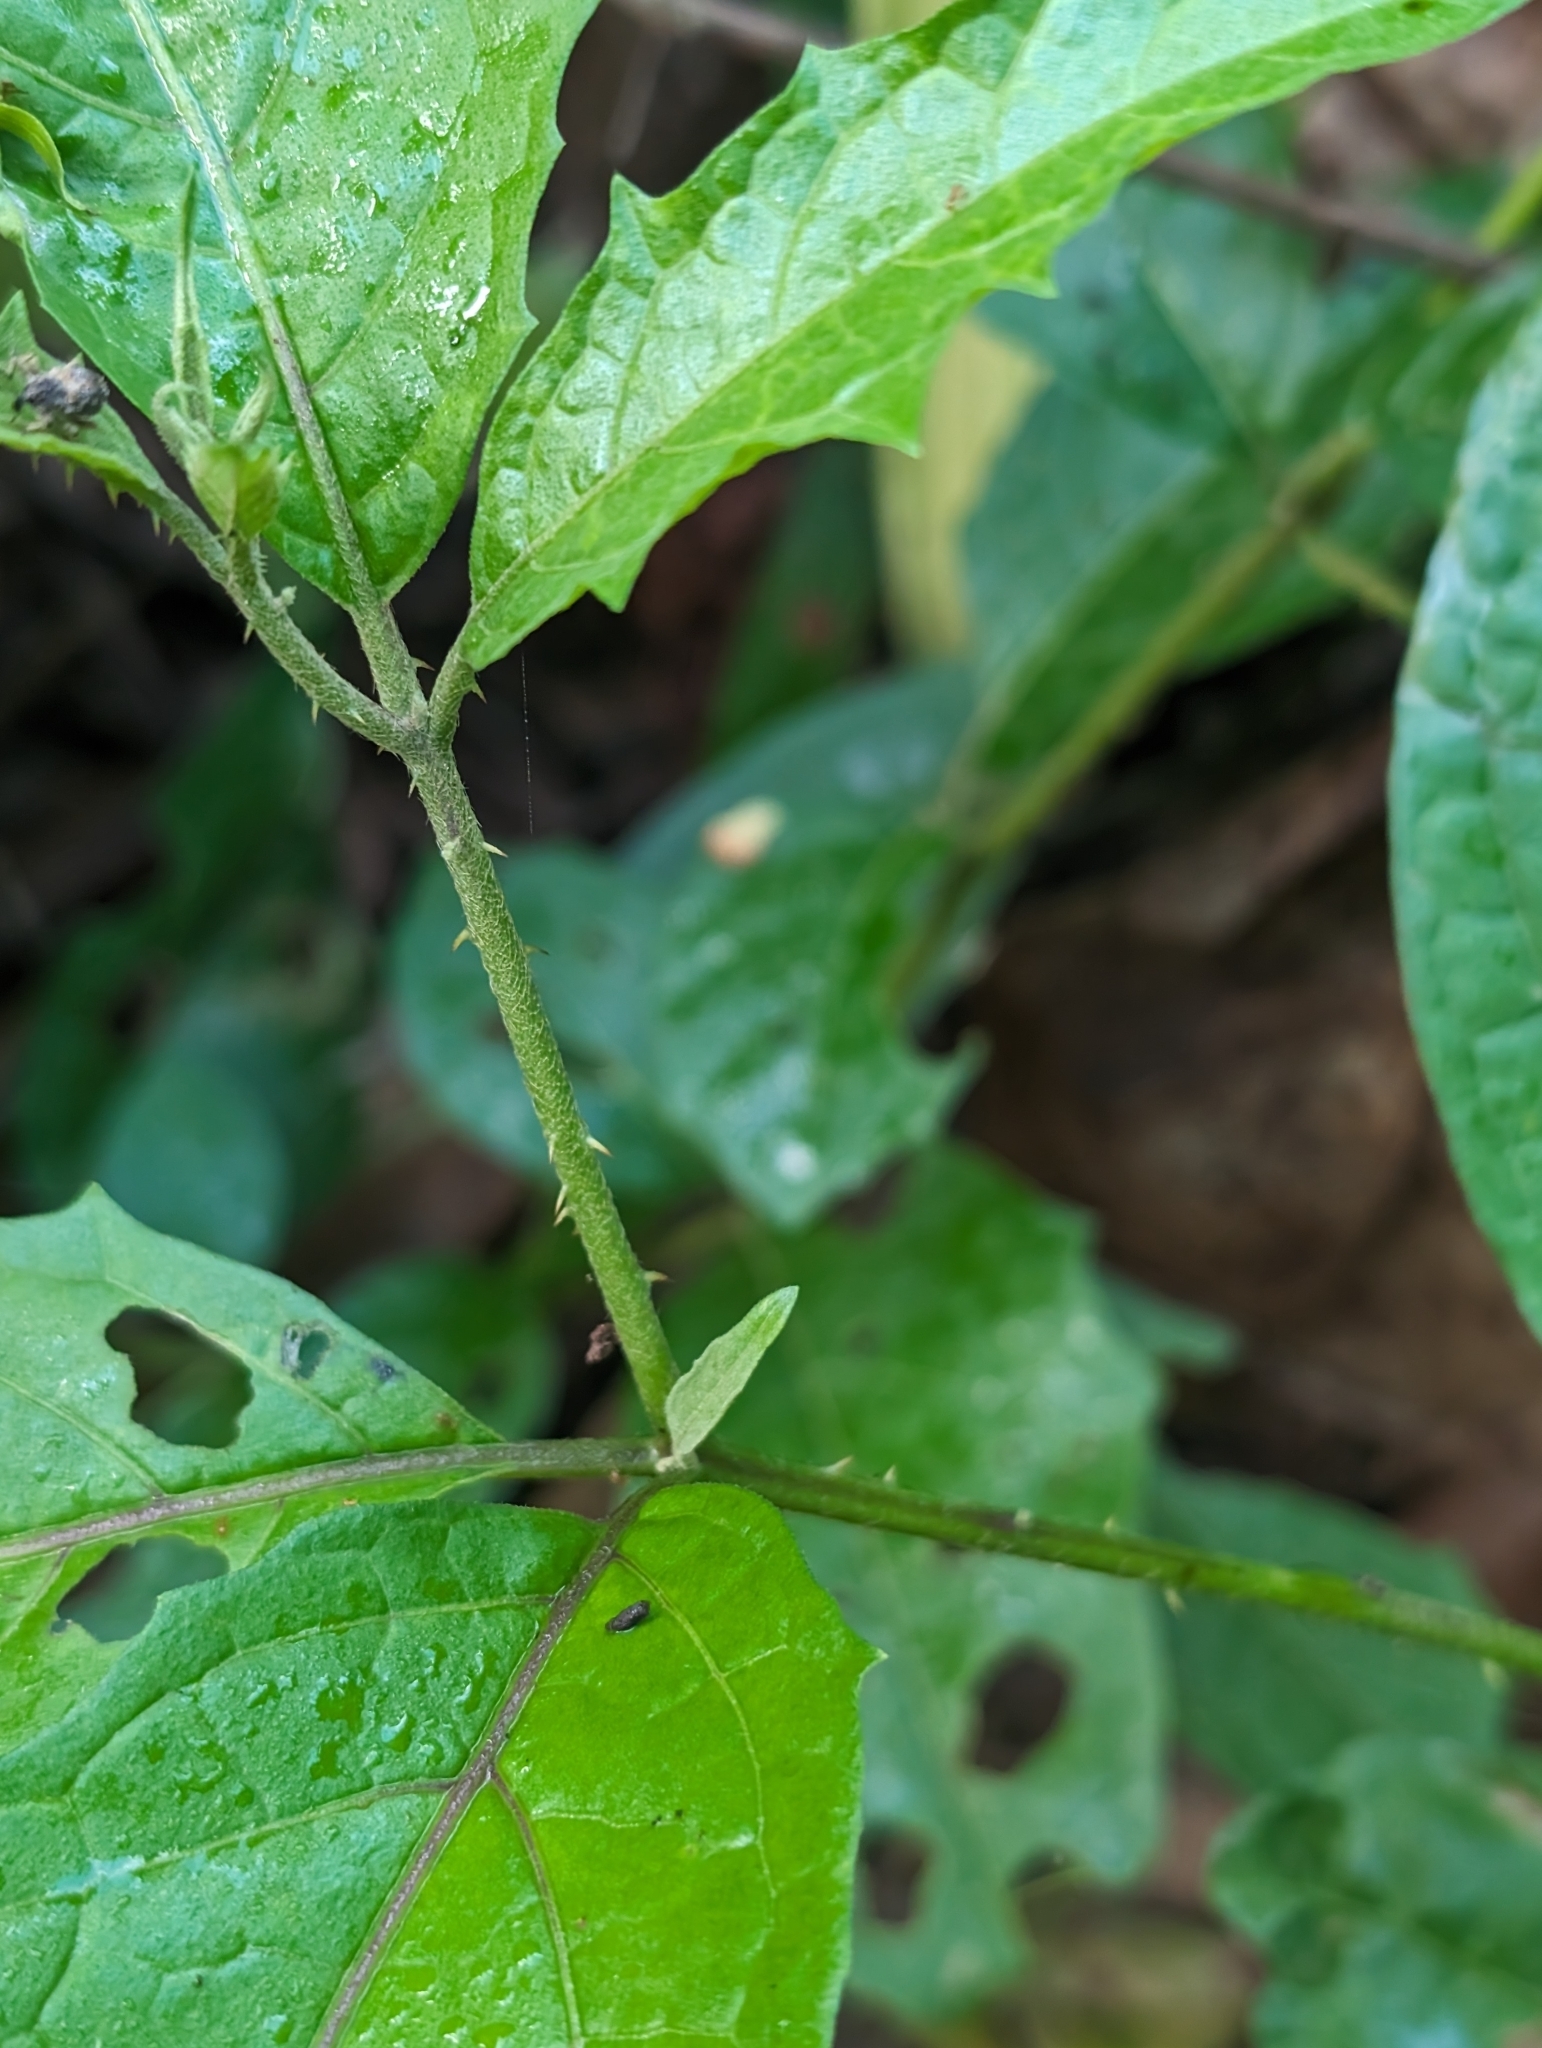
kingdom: Plantae
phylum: Tracheophyta
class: Magnoliopsida
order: Solanales
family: Solanaceae
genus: Solanum
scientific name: Solanum volubile
